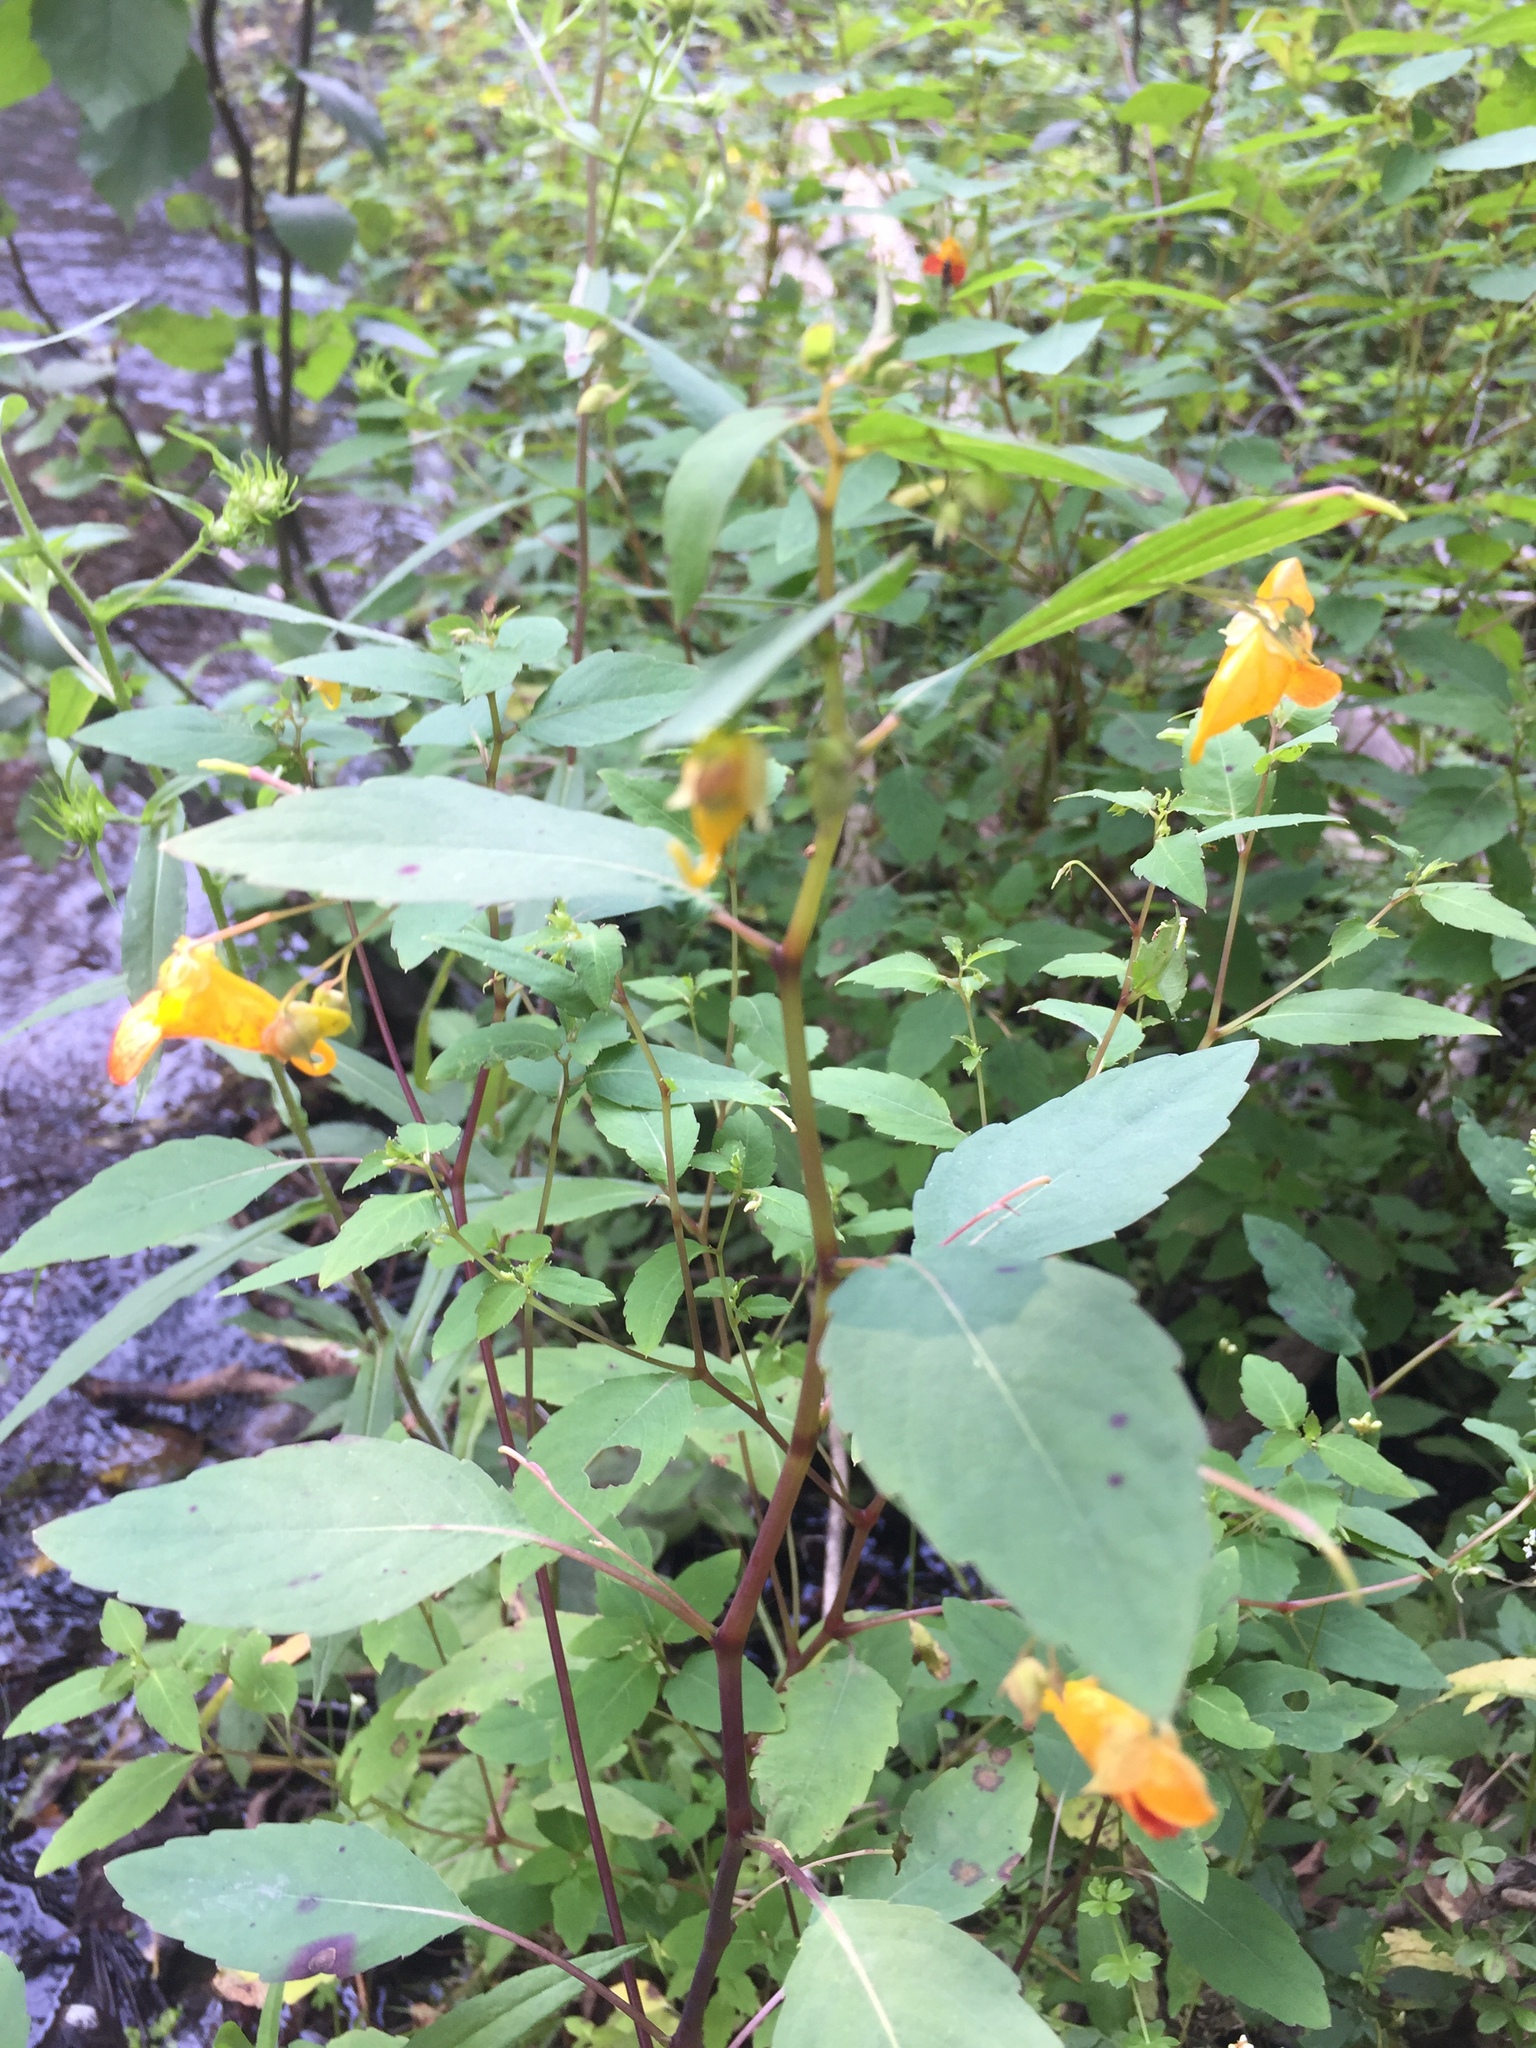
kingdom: Plantae
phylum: Tracheophyta
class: Magnoliopsida
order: Ericales
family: Balsaminaceae
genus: Impatiens
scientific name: Impatiens capensis
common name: Orange balsam
